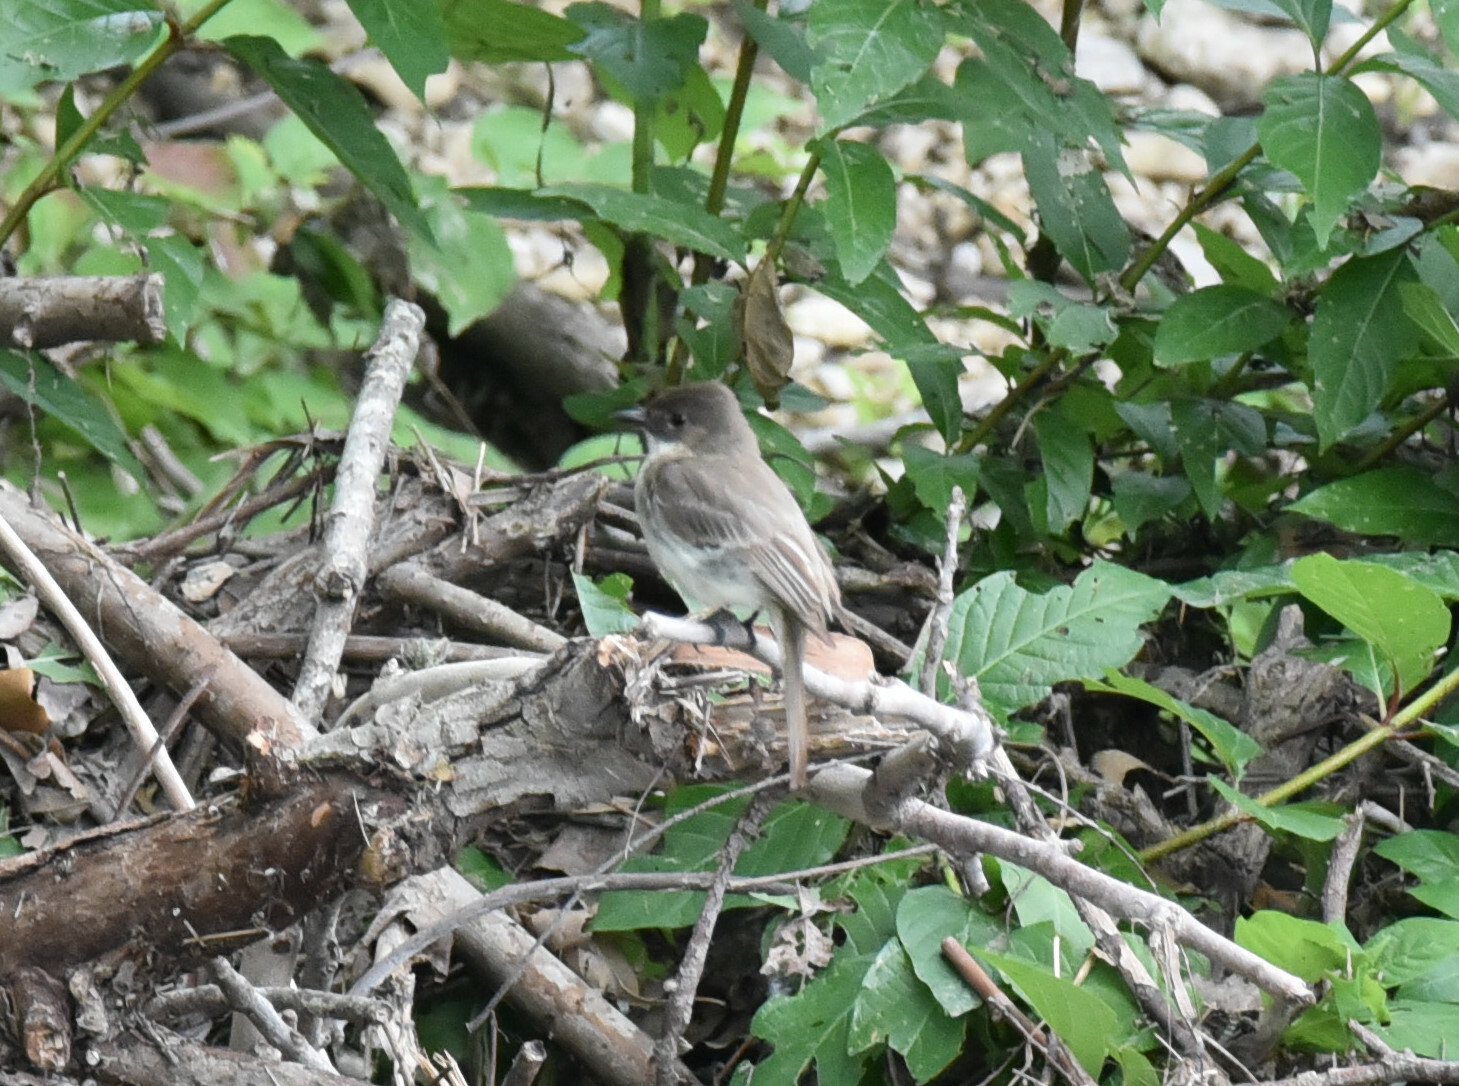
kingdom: Animalia
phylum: Chordata
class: Aves
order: Passeriformes
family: Tyrannidae
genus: Sayornis
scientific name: Sayornis phoebe
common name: Eastern phoebe
